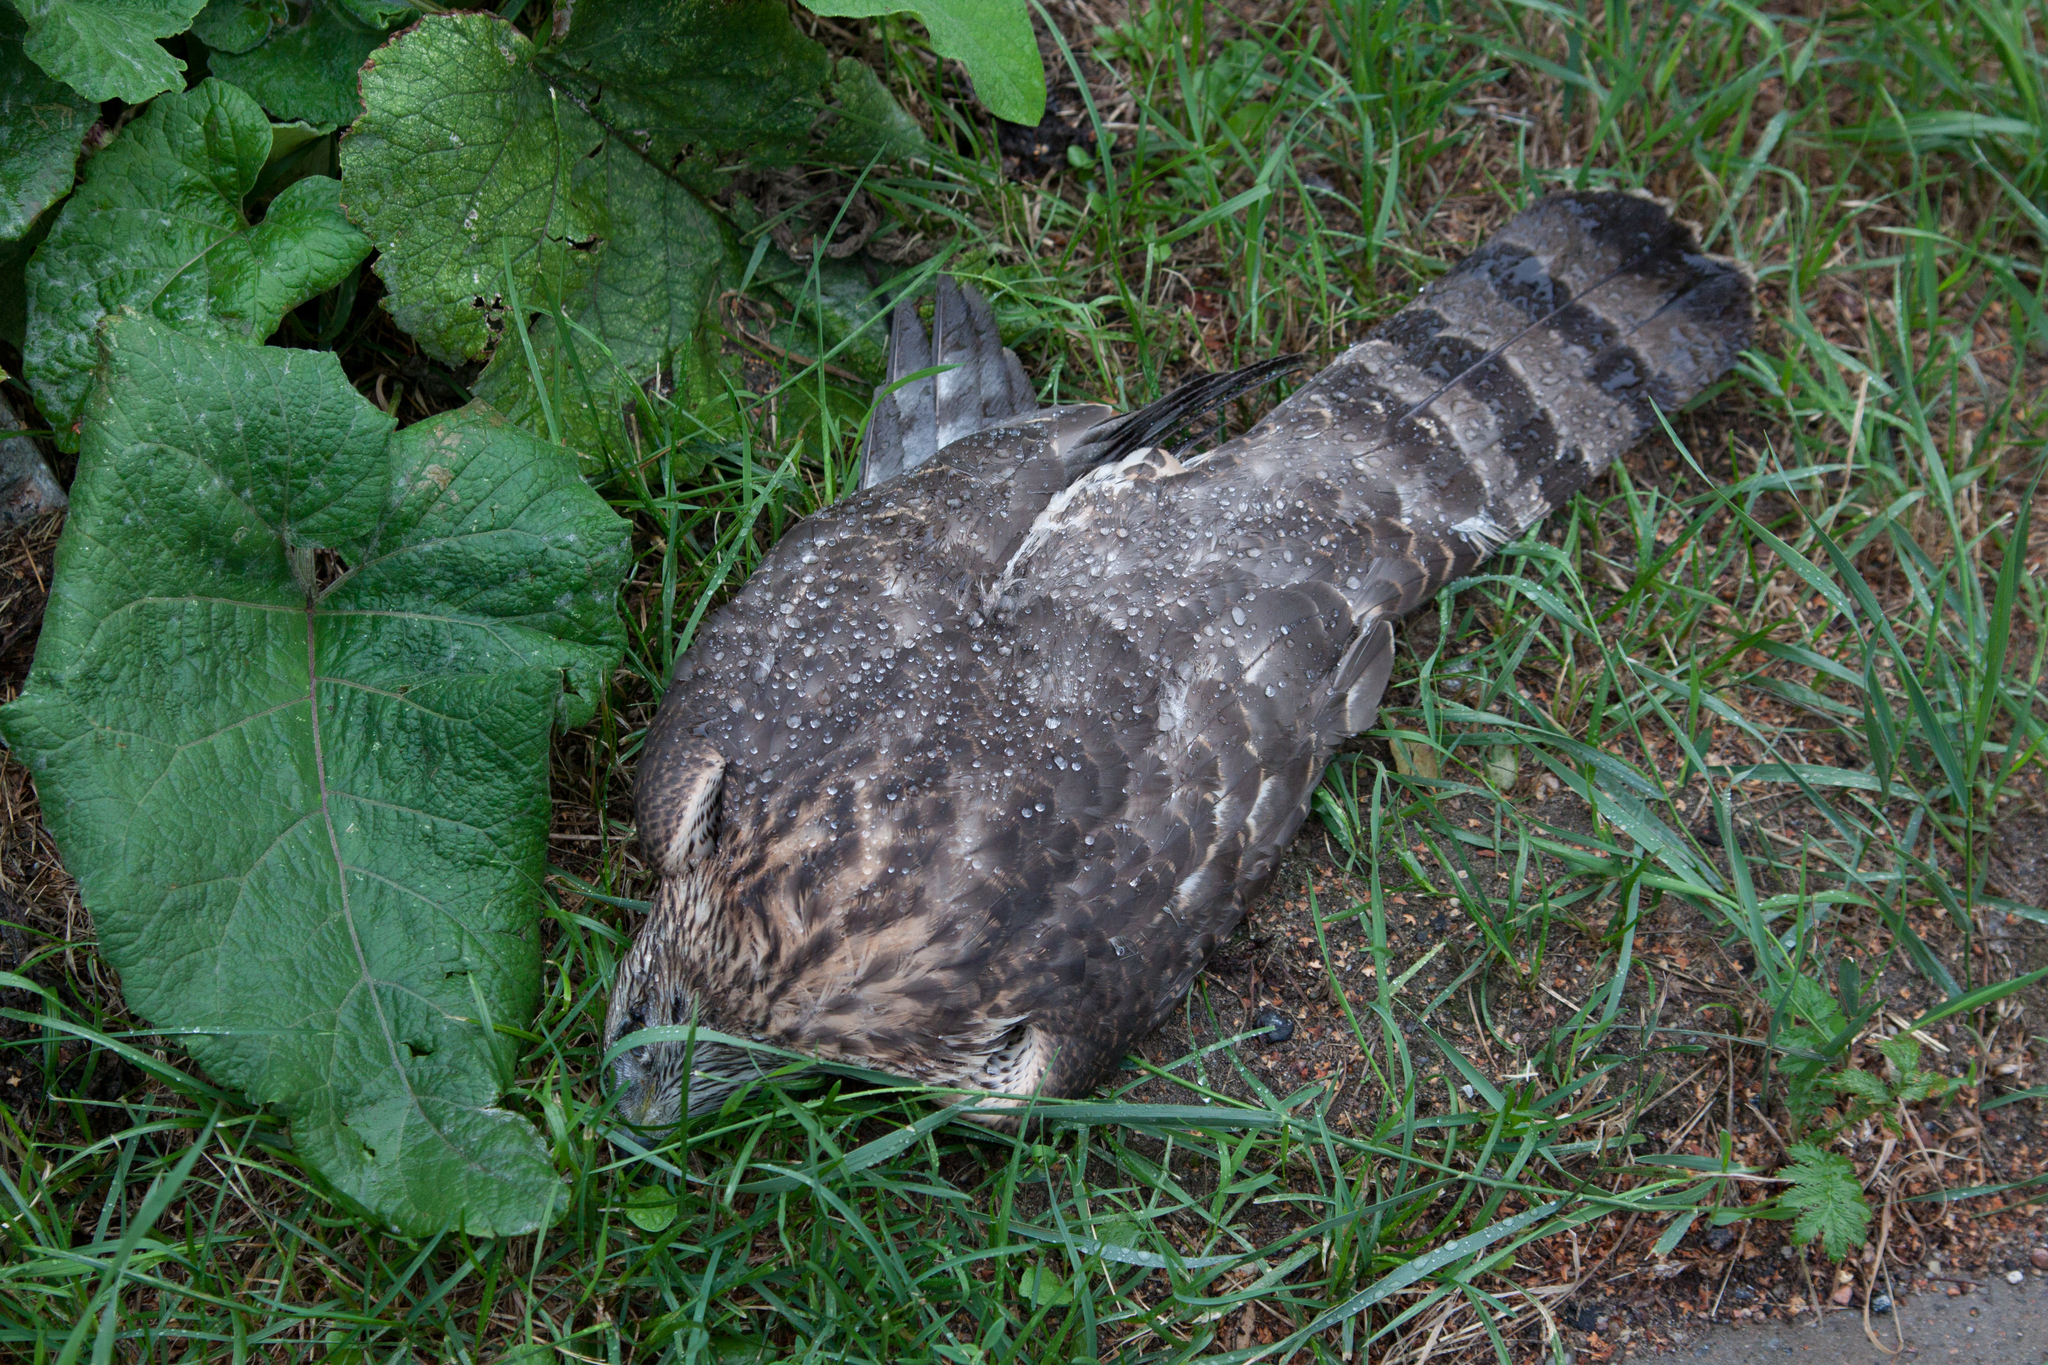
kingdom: Animalia
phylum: Chordata
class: Aves
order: Accipitriformes
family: Accipitridae
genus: Accipiter
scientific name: Accipiter gentilis
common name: Northern goshawk
